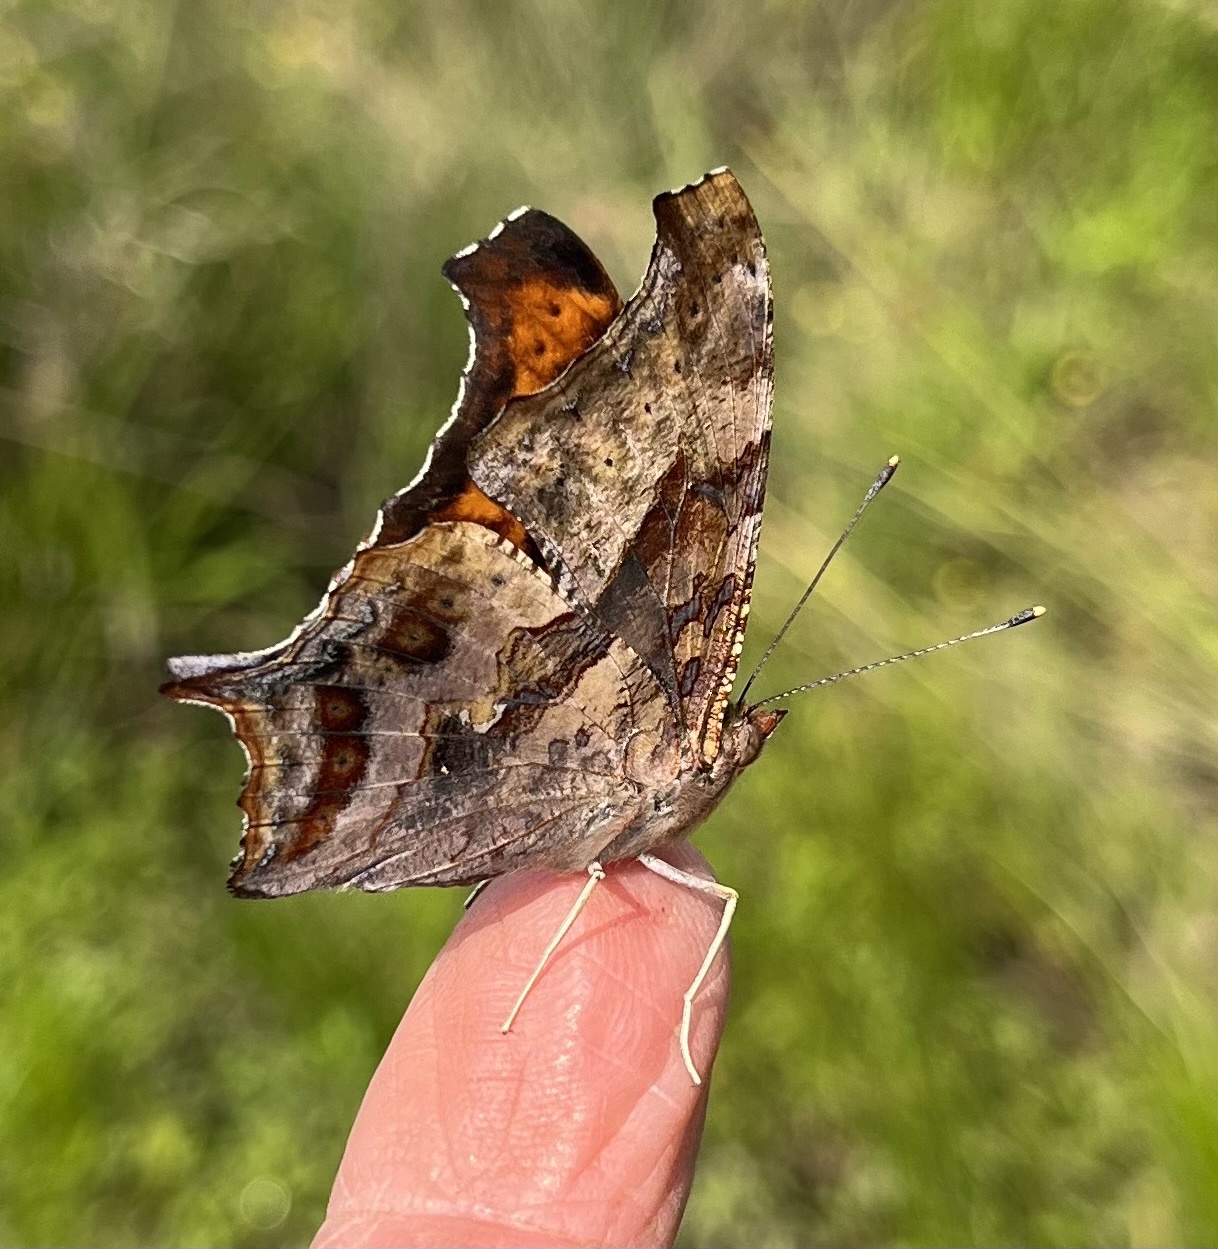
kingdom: Animalia
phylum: Arthropoda
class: Insecta
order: Lepidoptera
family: Nymphalidae
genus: Polygonia
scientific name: Polygonia interrogationis
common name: Question mark
